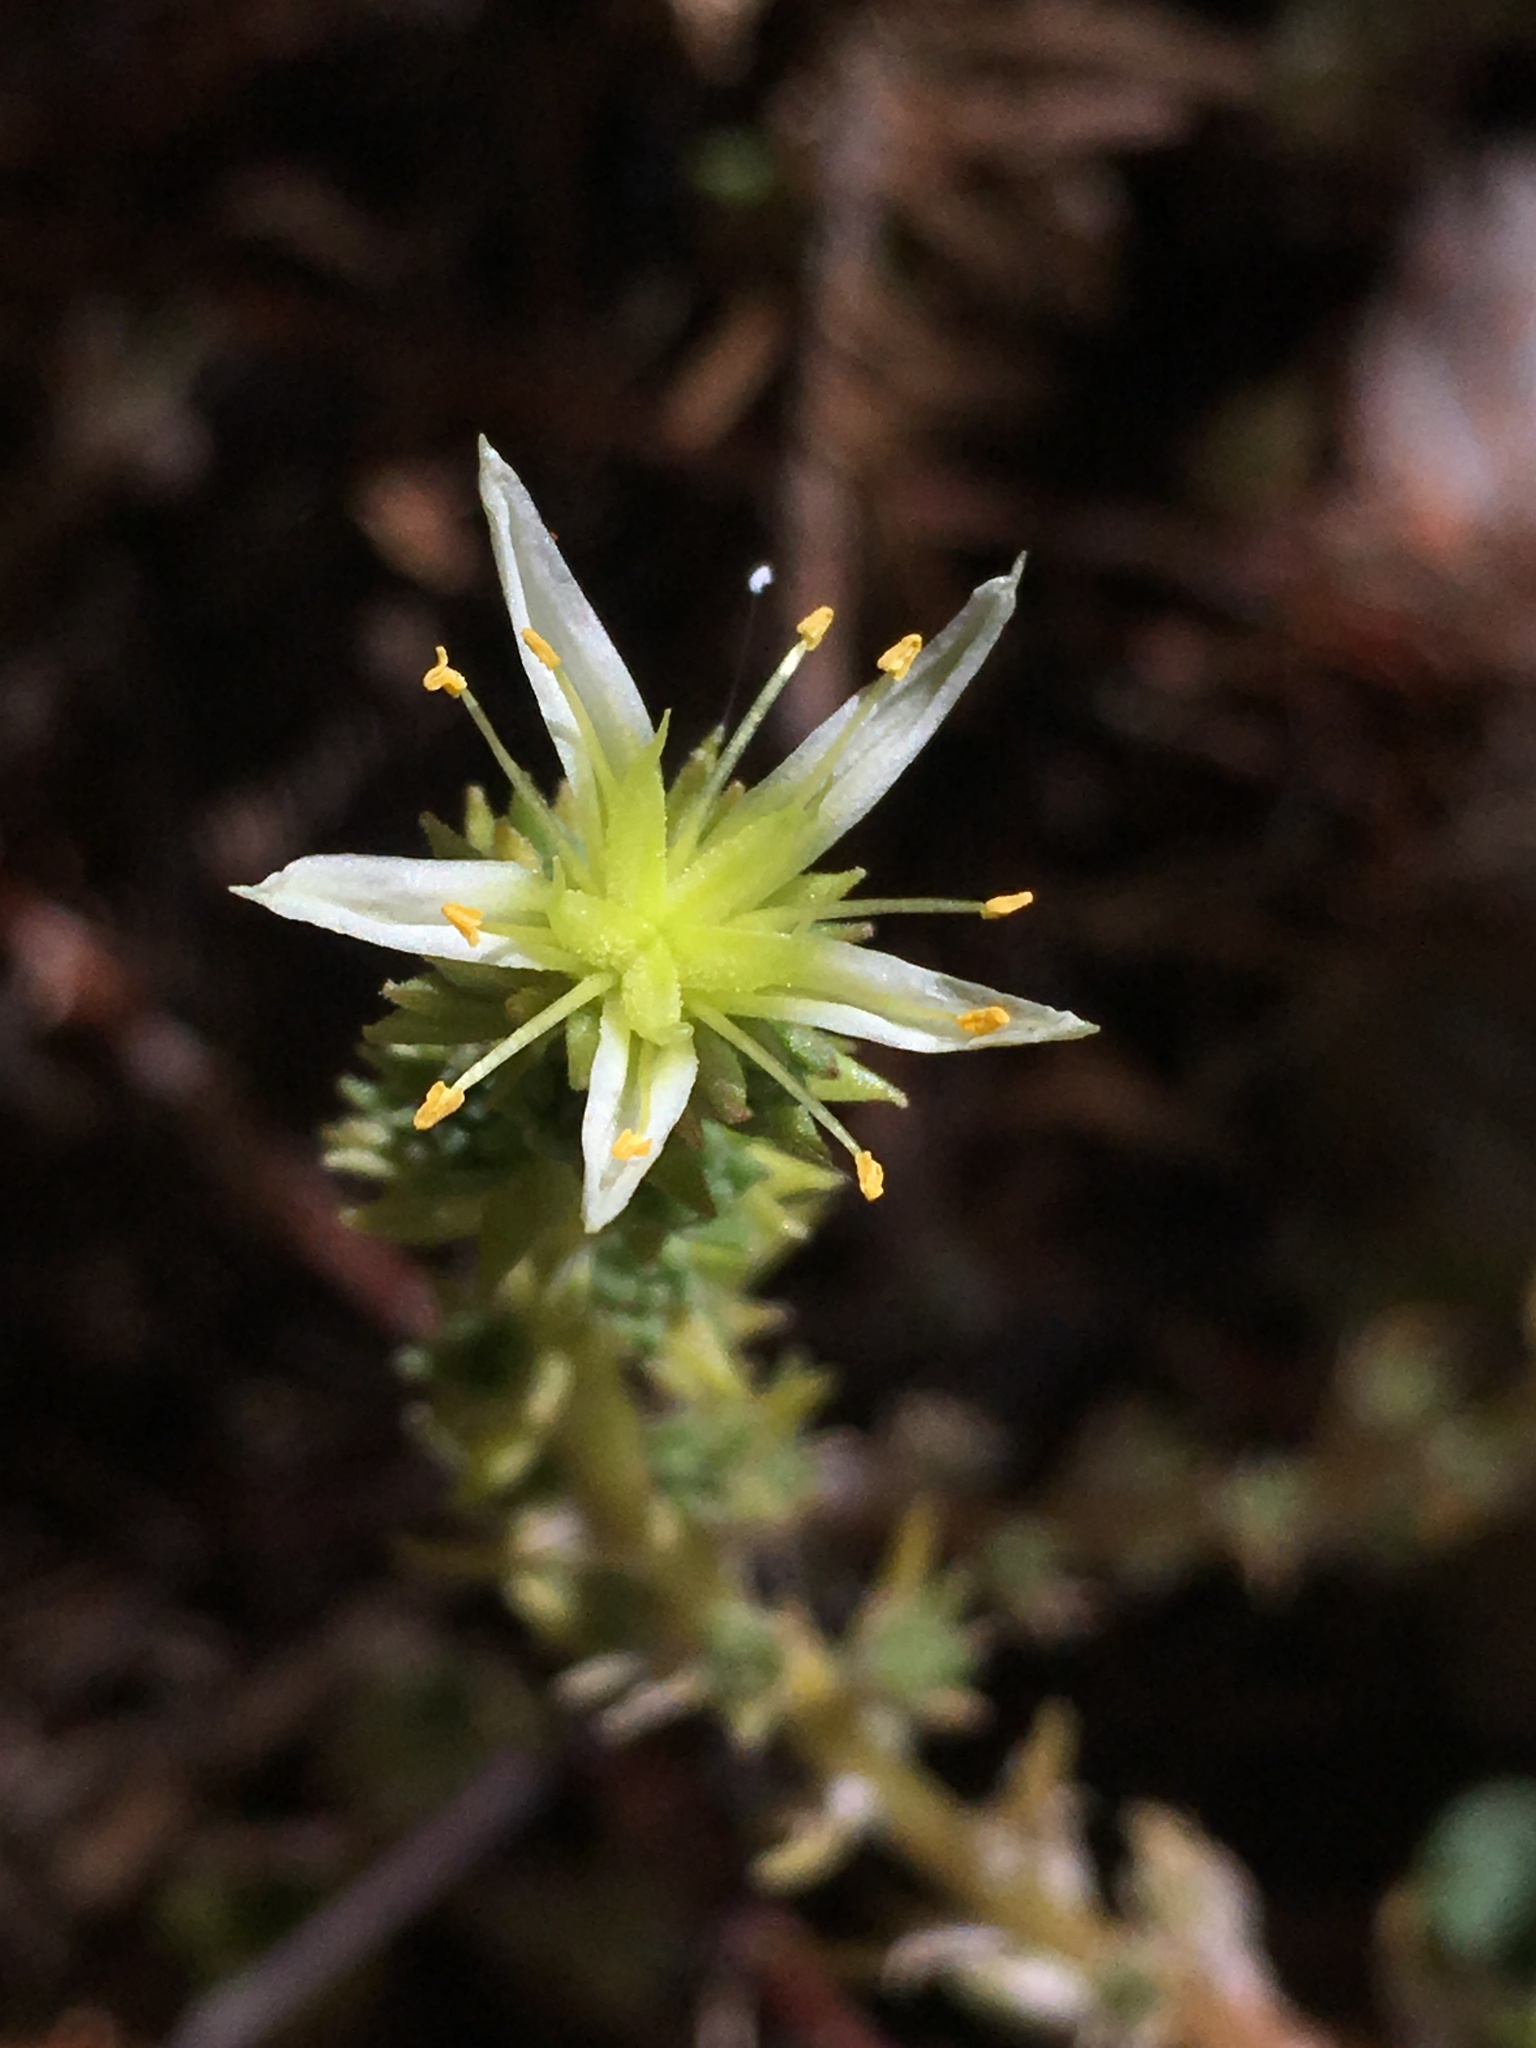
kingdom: Plantae
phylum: Tracheophyta
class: Magnoliopsida
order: Saxifragales
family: Crassulaceae
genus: Sedum
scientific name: Sedum stenopetalum
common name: Narrow-petaled stonecrop
